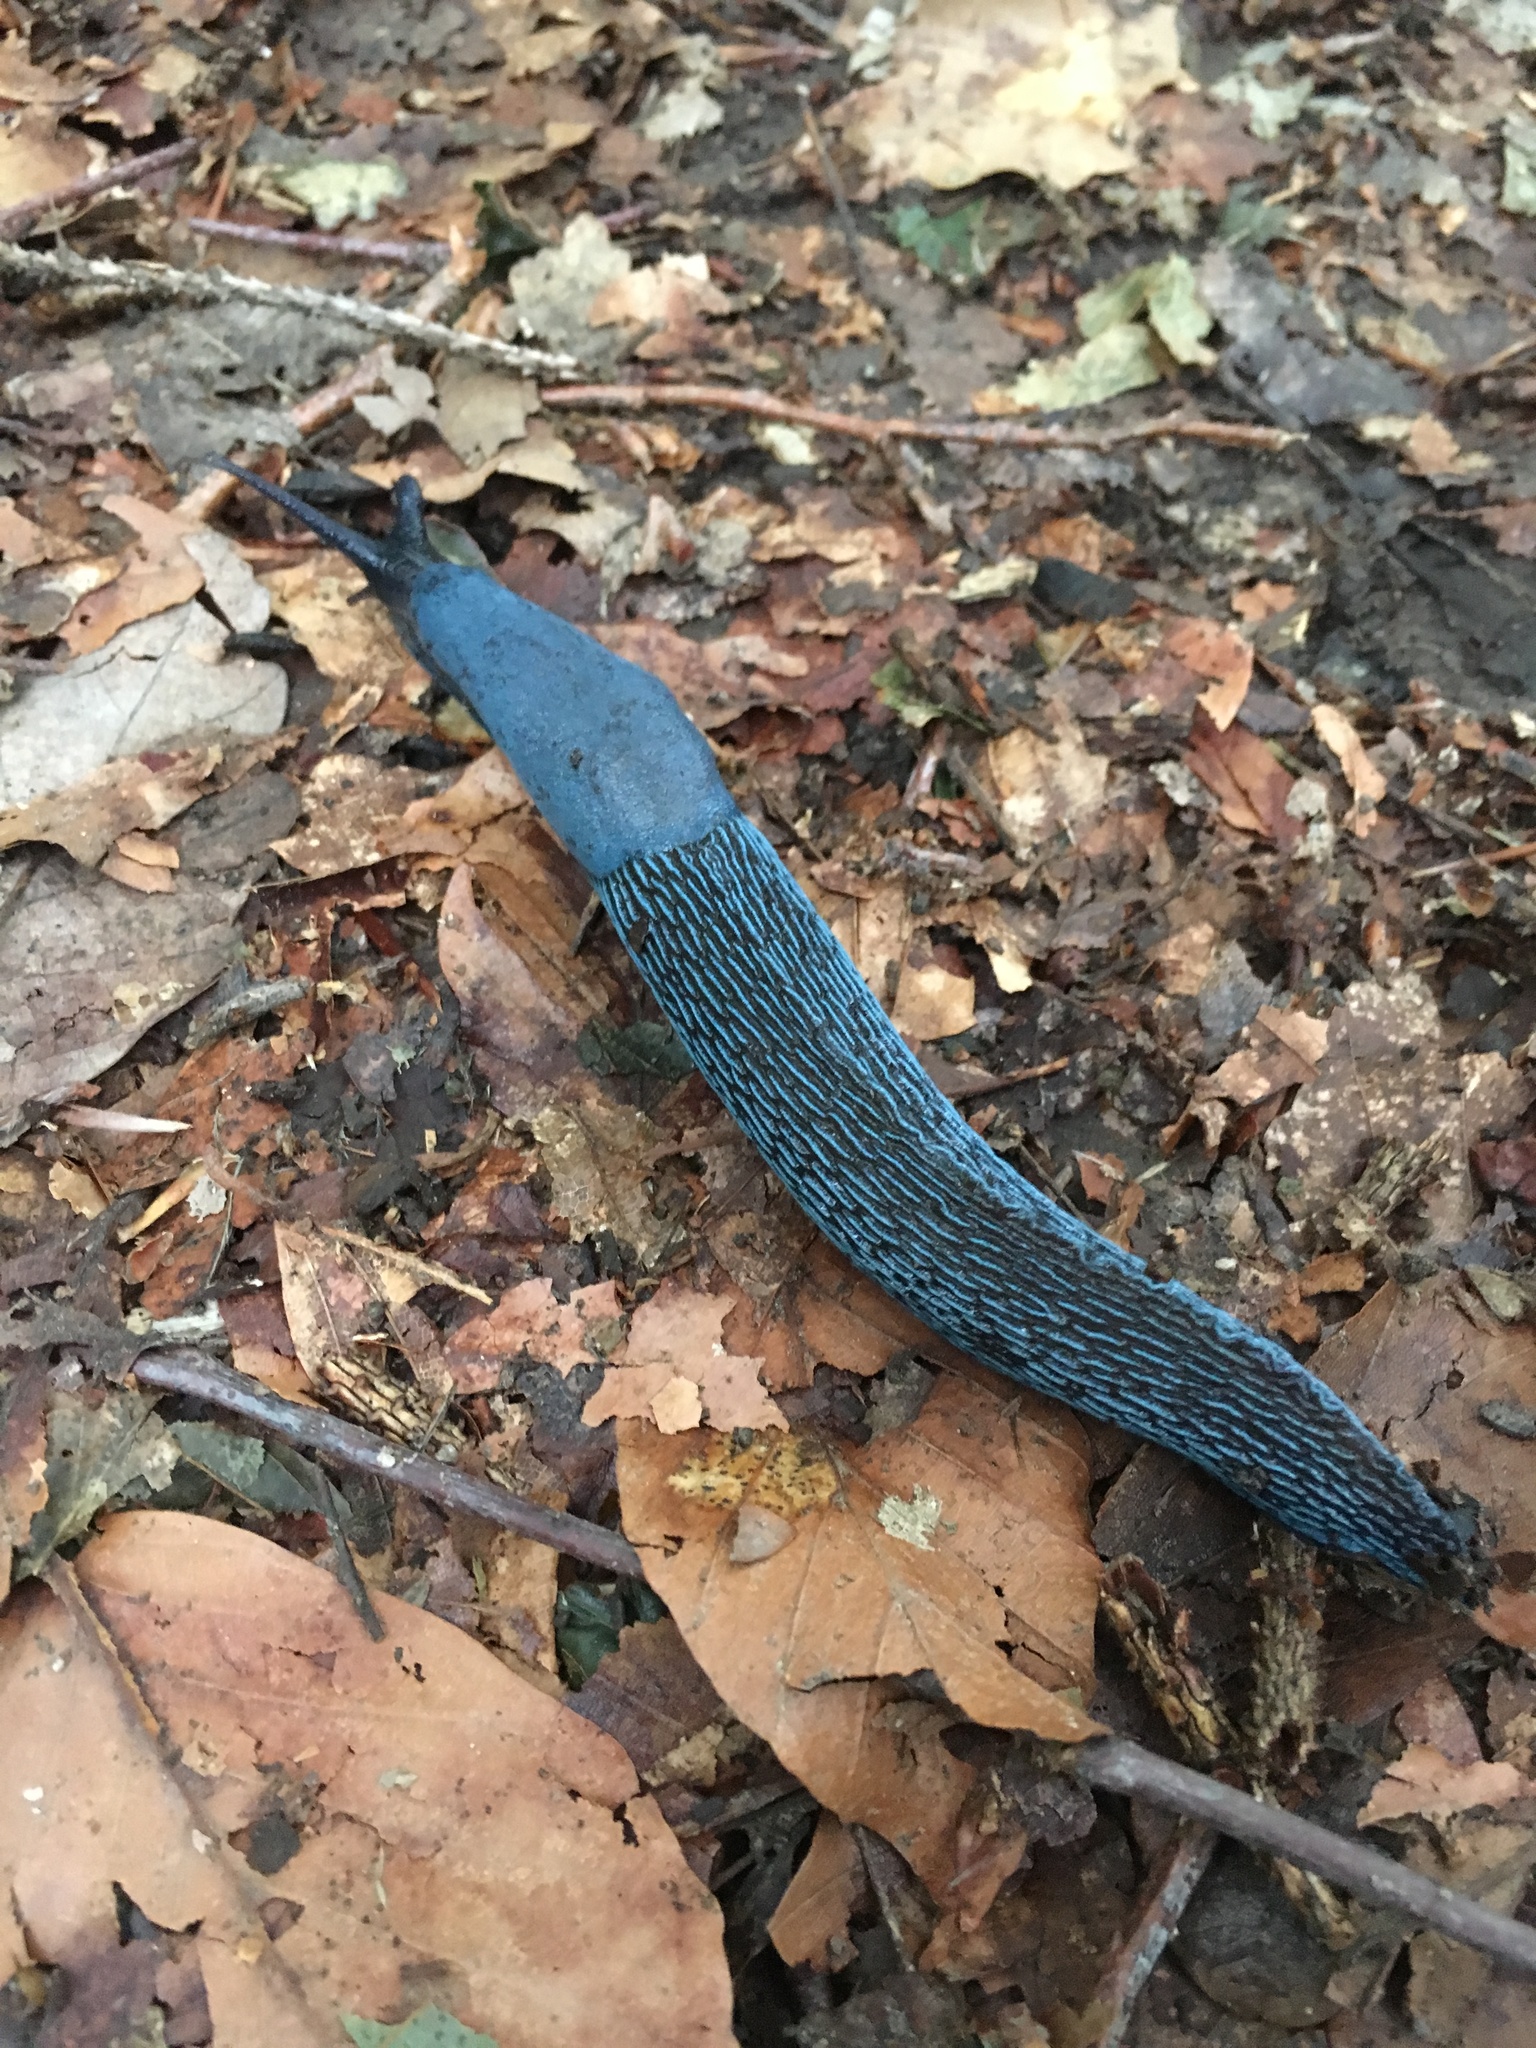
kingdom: Animalia
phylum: Mollusca
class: Gastropoda
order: Stylommatophora
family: Limacidae
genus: Bielzia
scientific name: Bielzia coerulans
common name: Carpathian blue slug
